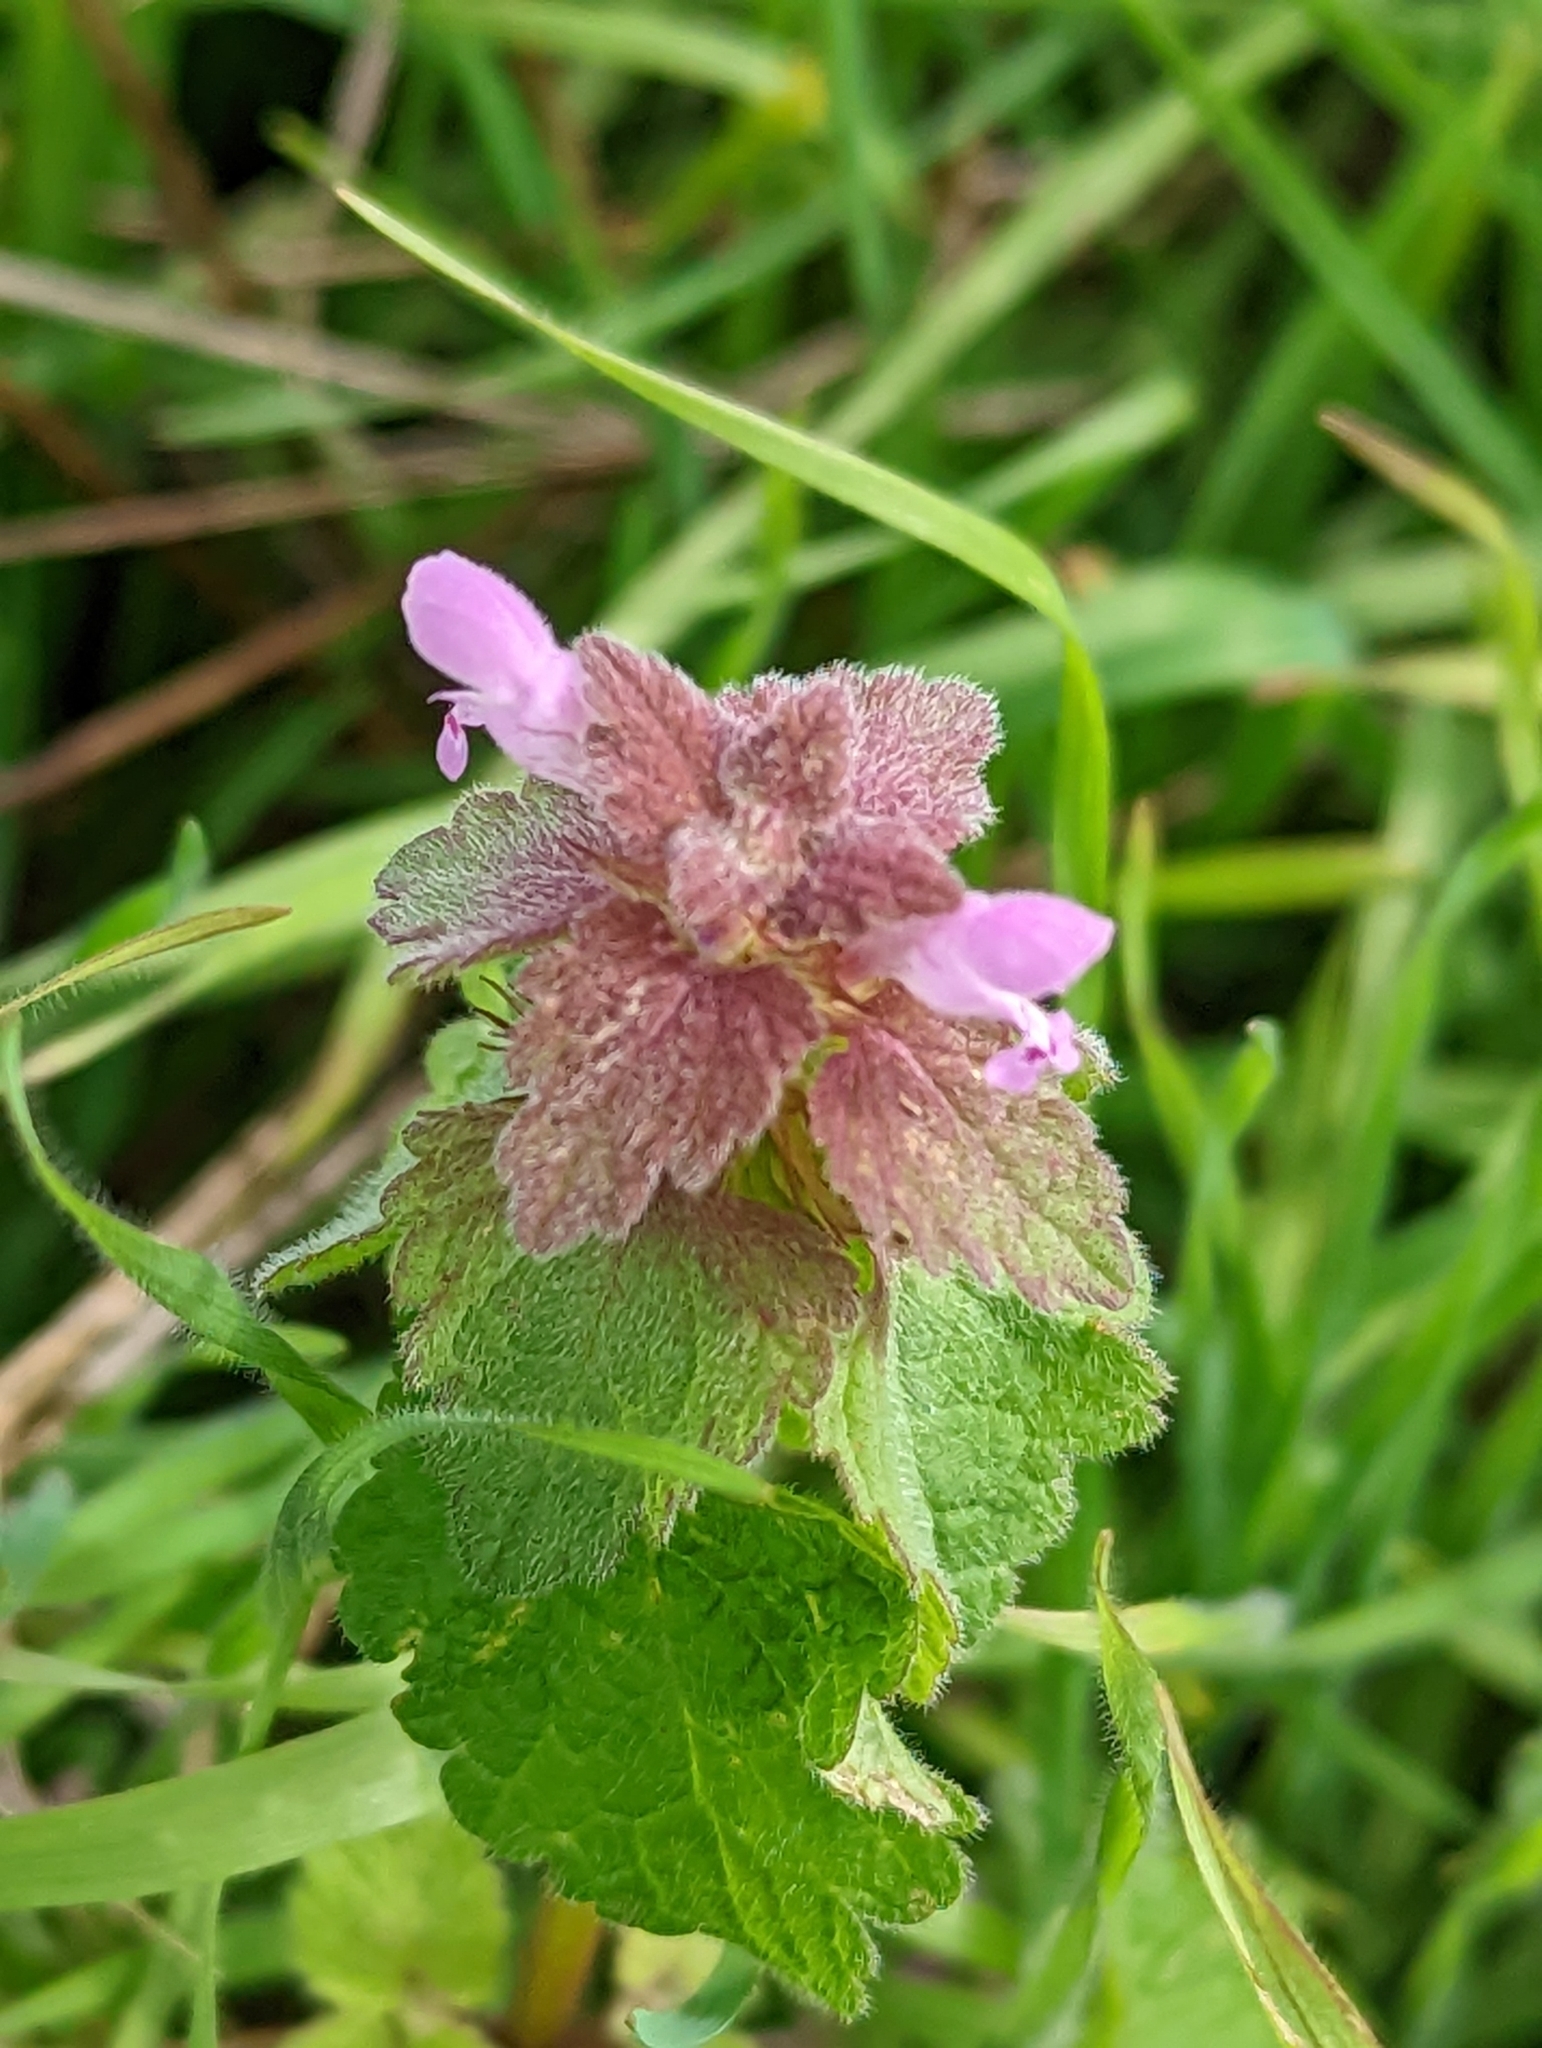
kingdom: Plantae
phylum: Tracheophyta
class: Magnoliopsida
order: Lamiales
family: Lamiaceae
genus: Lamium
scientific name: Lamium purpureum
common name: Red dead-nettle
